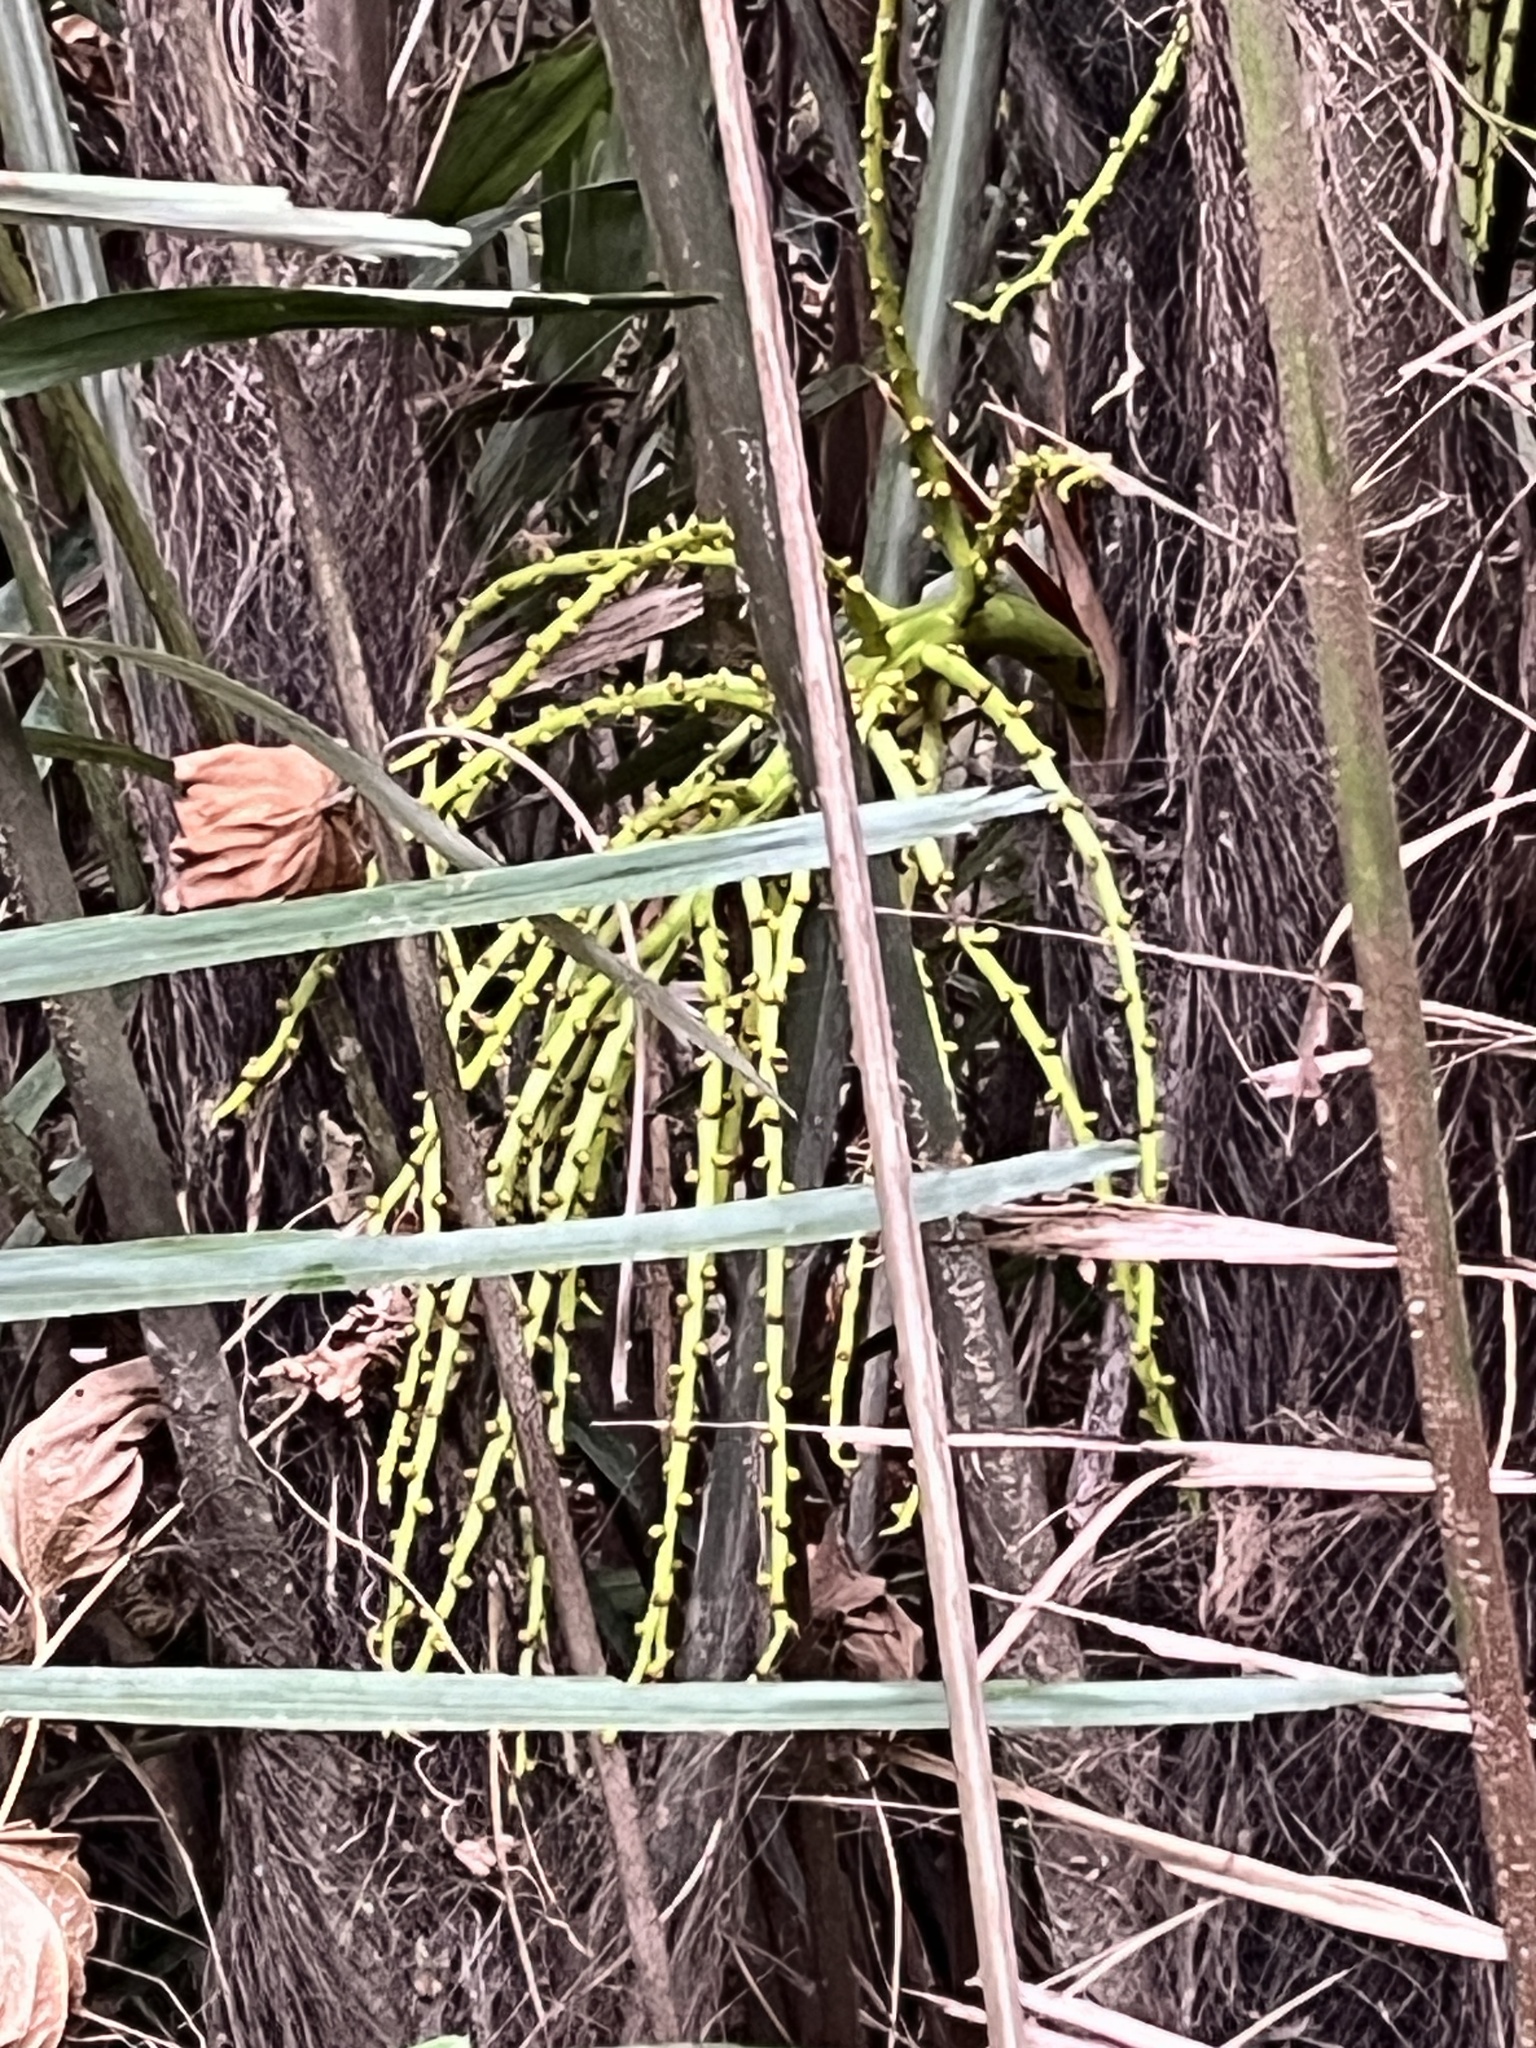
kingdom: Plantae
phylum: Tracheophyta
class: Liliopsida
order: Arecales
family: Arecaceae
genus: Arenga
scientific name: Arenga engleri
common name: Formosan sugar palm
